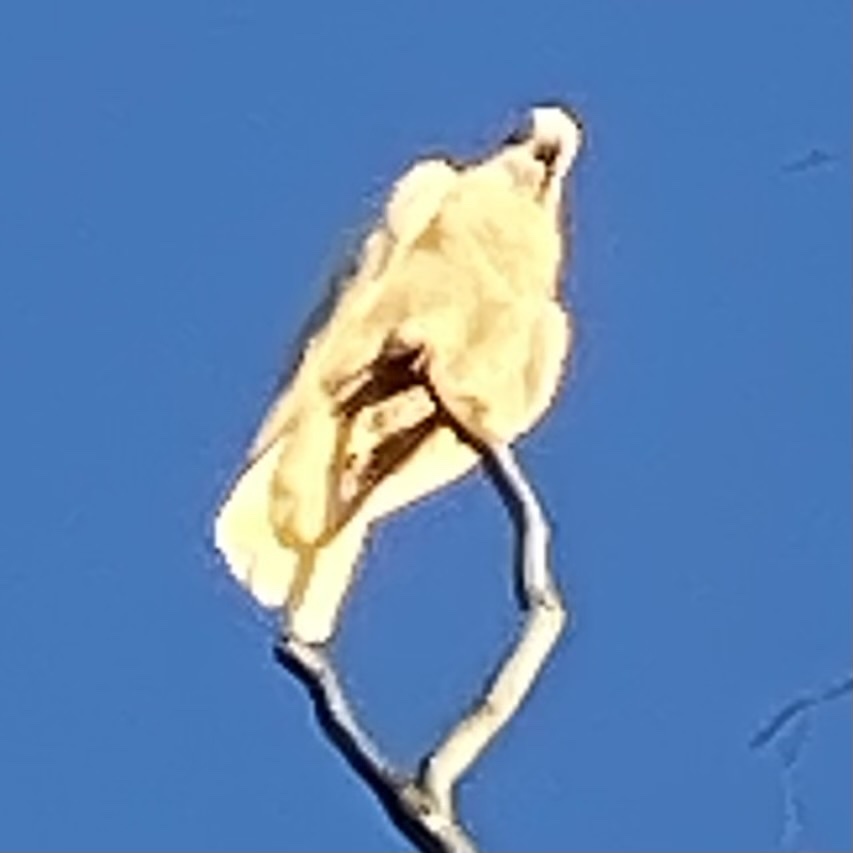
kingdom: Animalia
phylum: Chordata
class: Aves
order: Psittaciformes
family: Psittacidae
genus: Cacatua
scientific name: Cacatua galerita
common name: Sulphur-crested cockatoo
